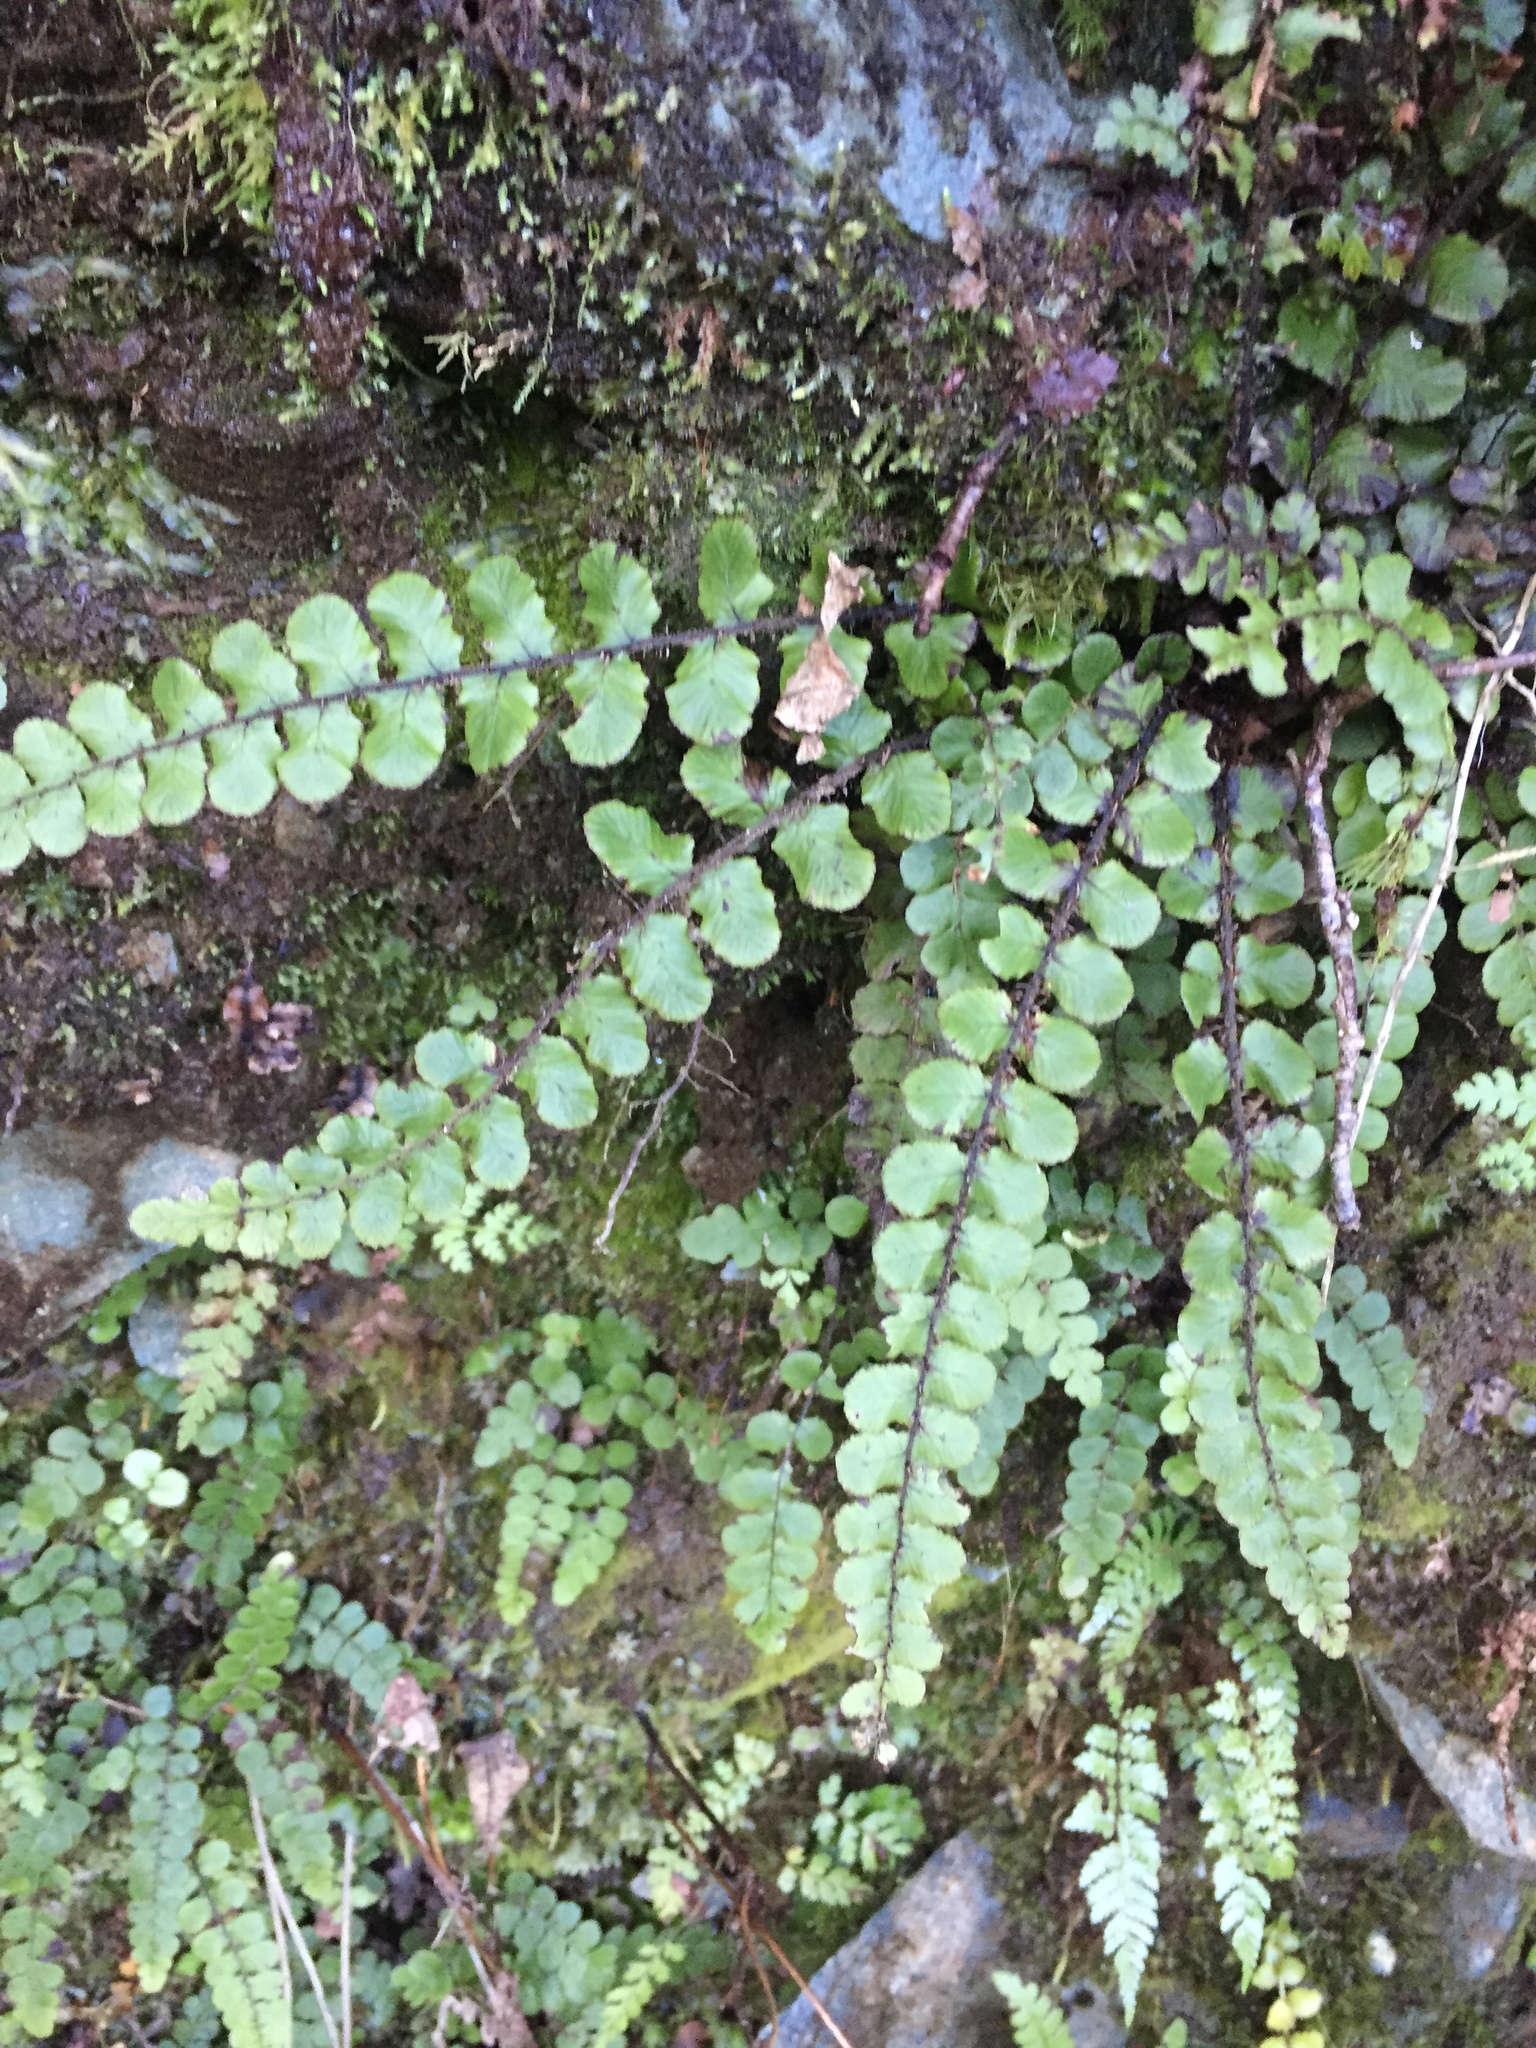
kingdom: Plantae
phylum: Tracheophyta
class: Polypodiopsida
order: Polypodiales
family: Blechnaceae
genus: Cranfillia
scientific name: Cranfillia fluviatilis
